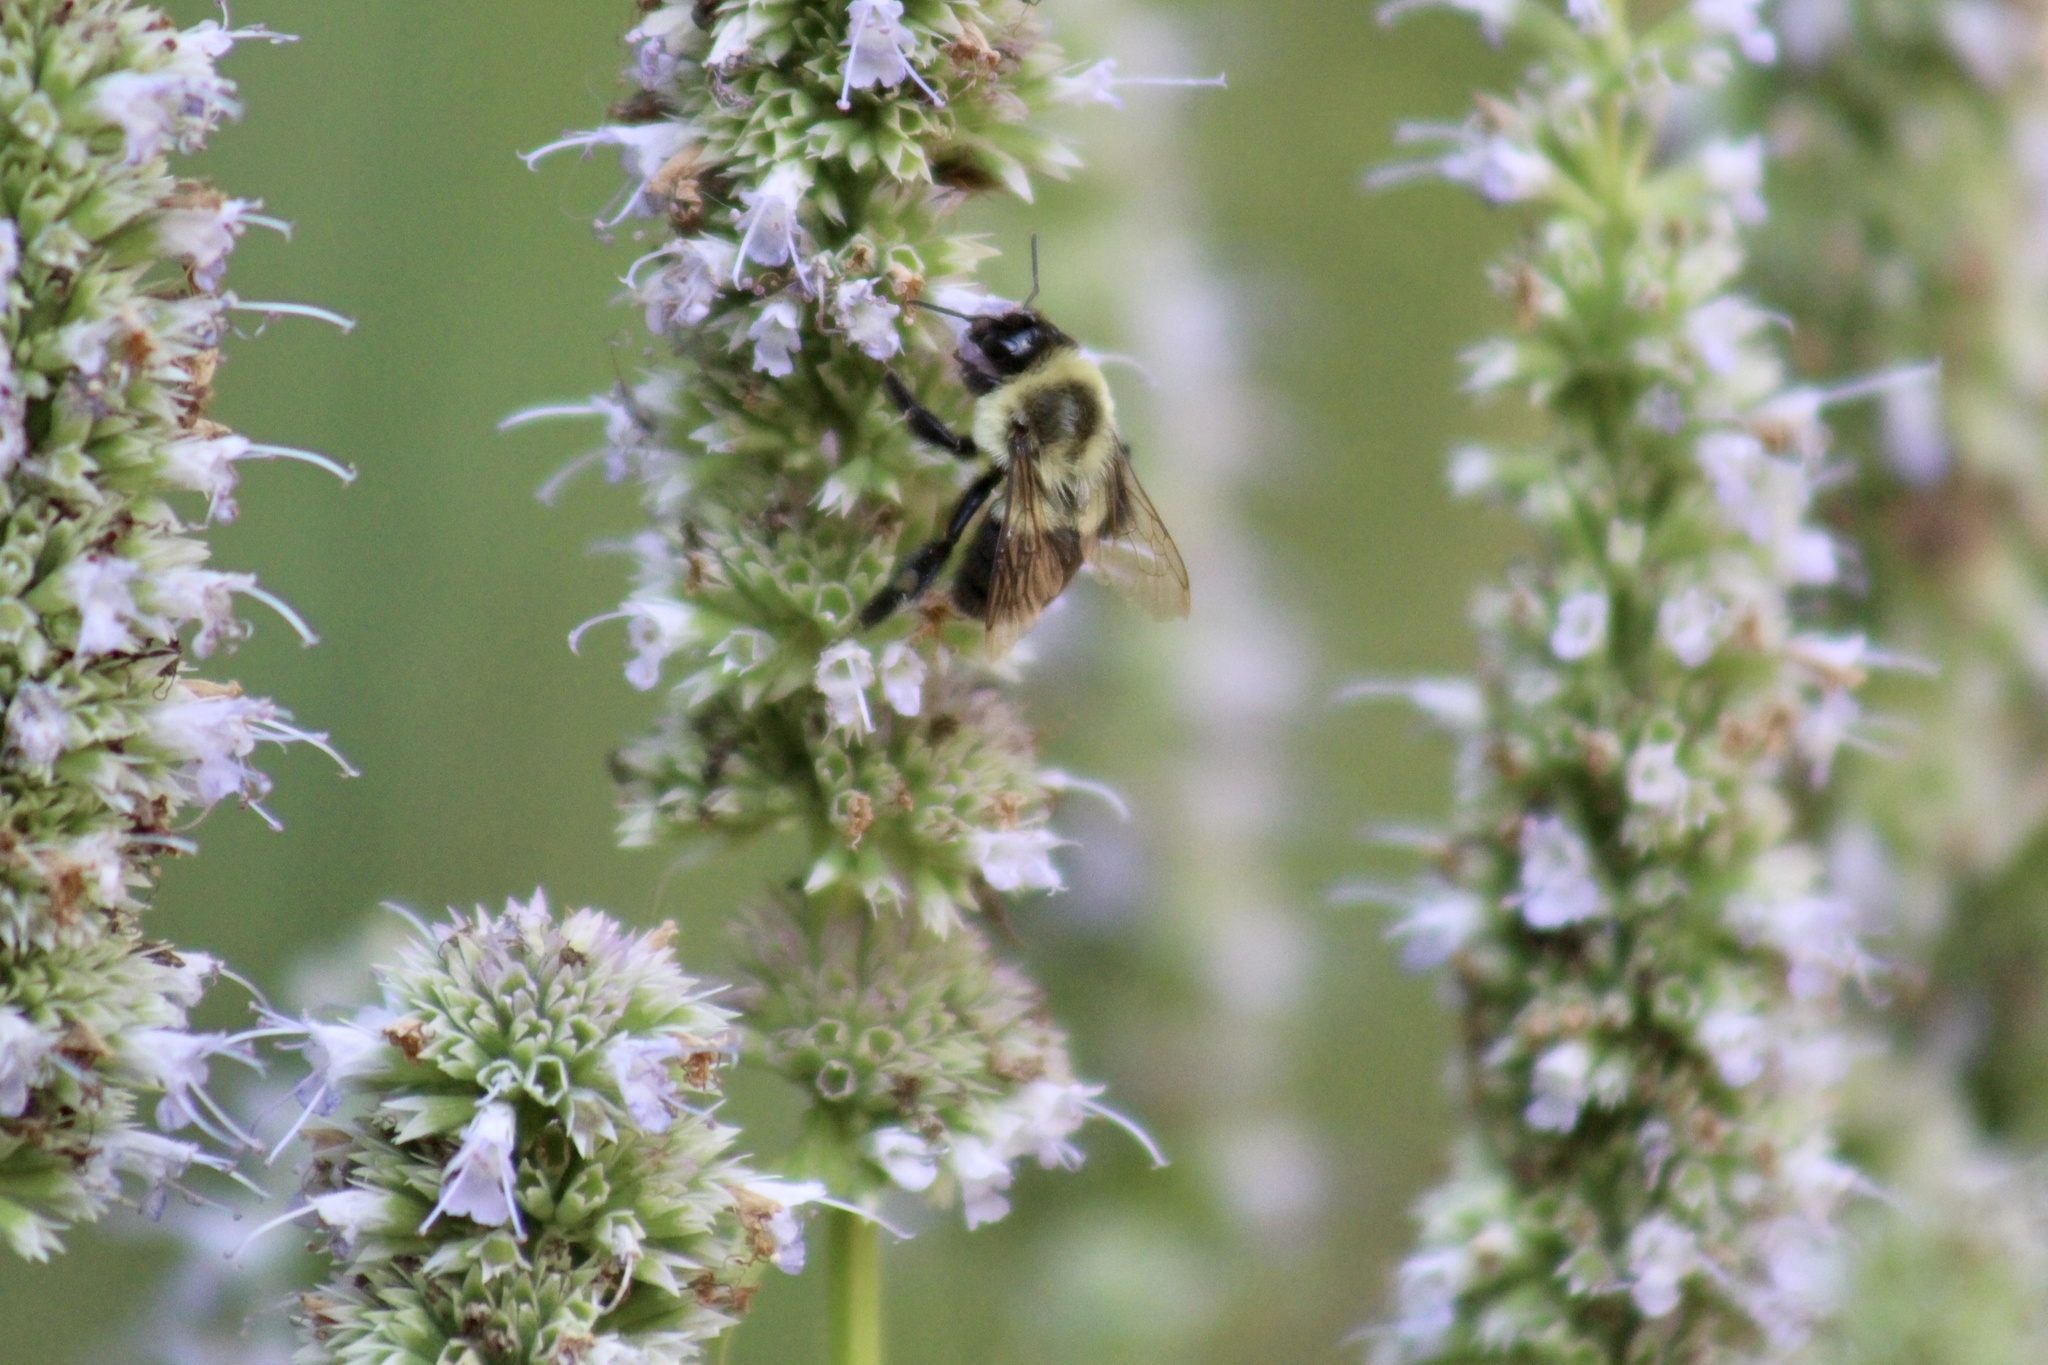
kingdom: Animalia
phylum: Arthropoda
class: Insecta
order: Hymenoptera
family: Apidae
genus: Bombus
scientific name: Bombus impatiens
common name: Common eastern bumble bee
